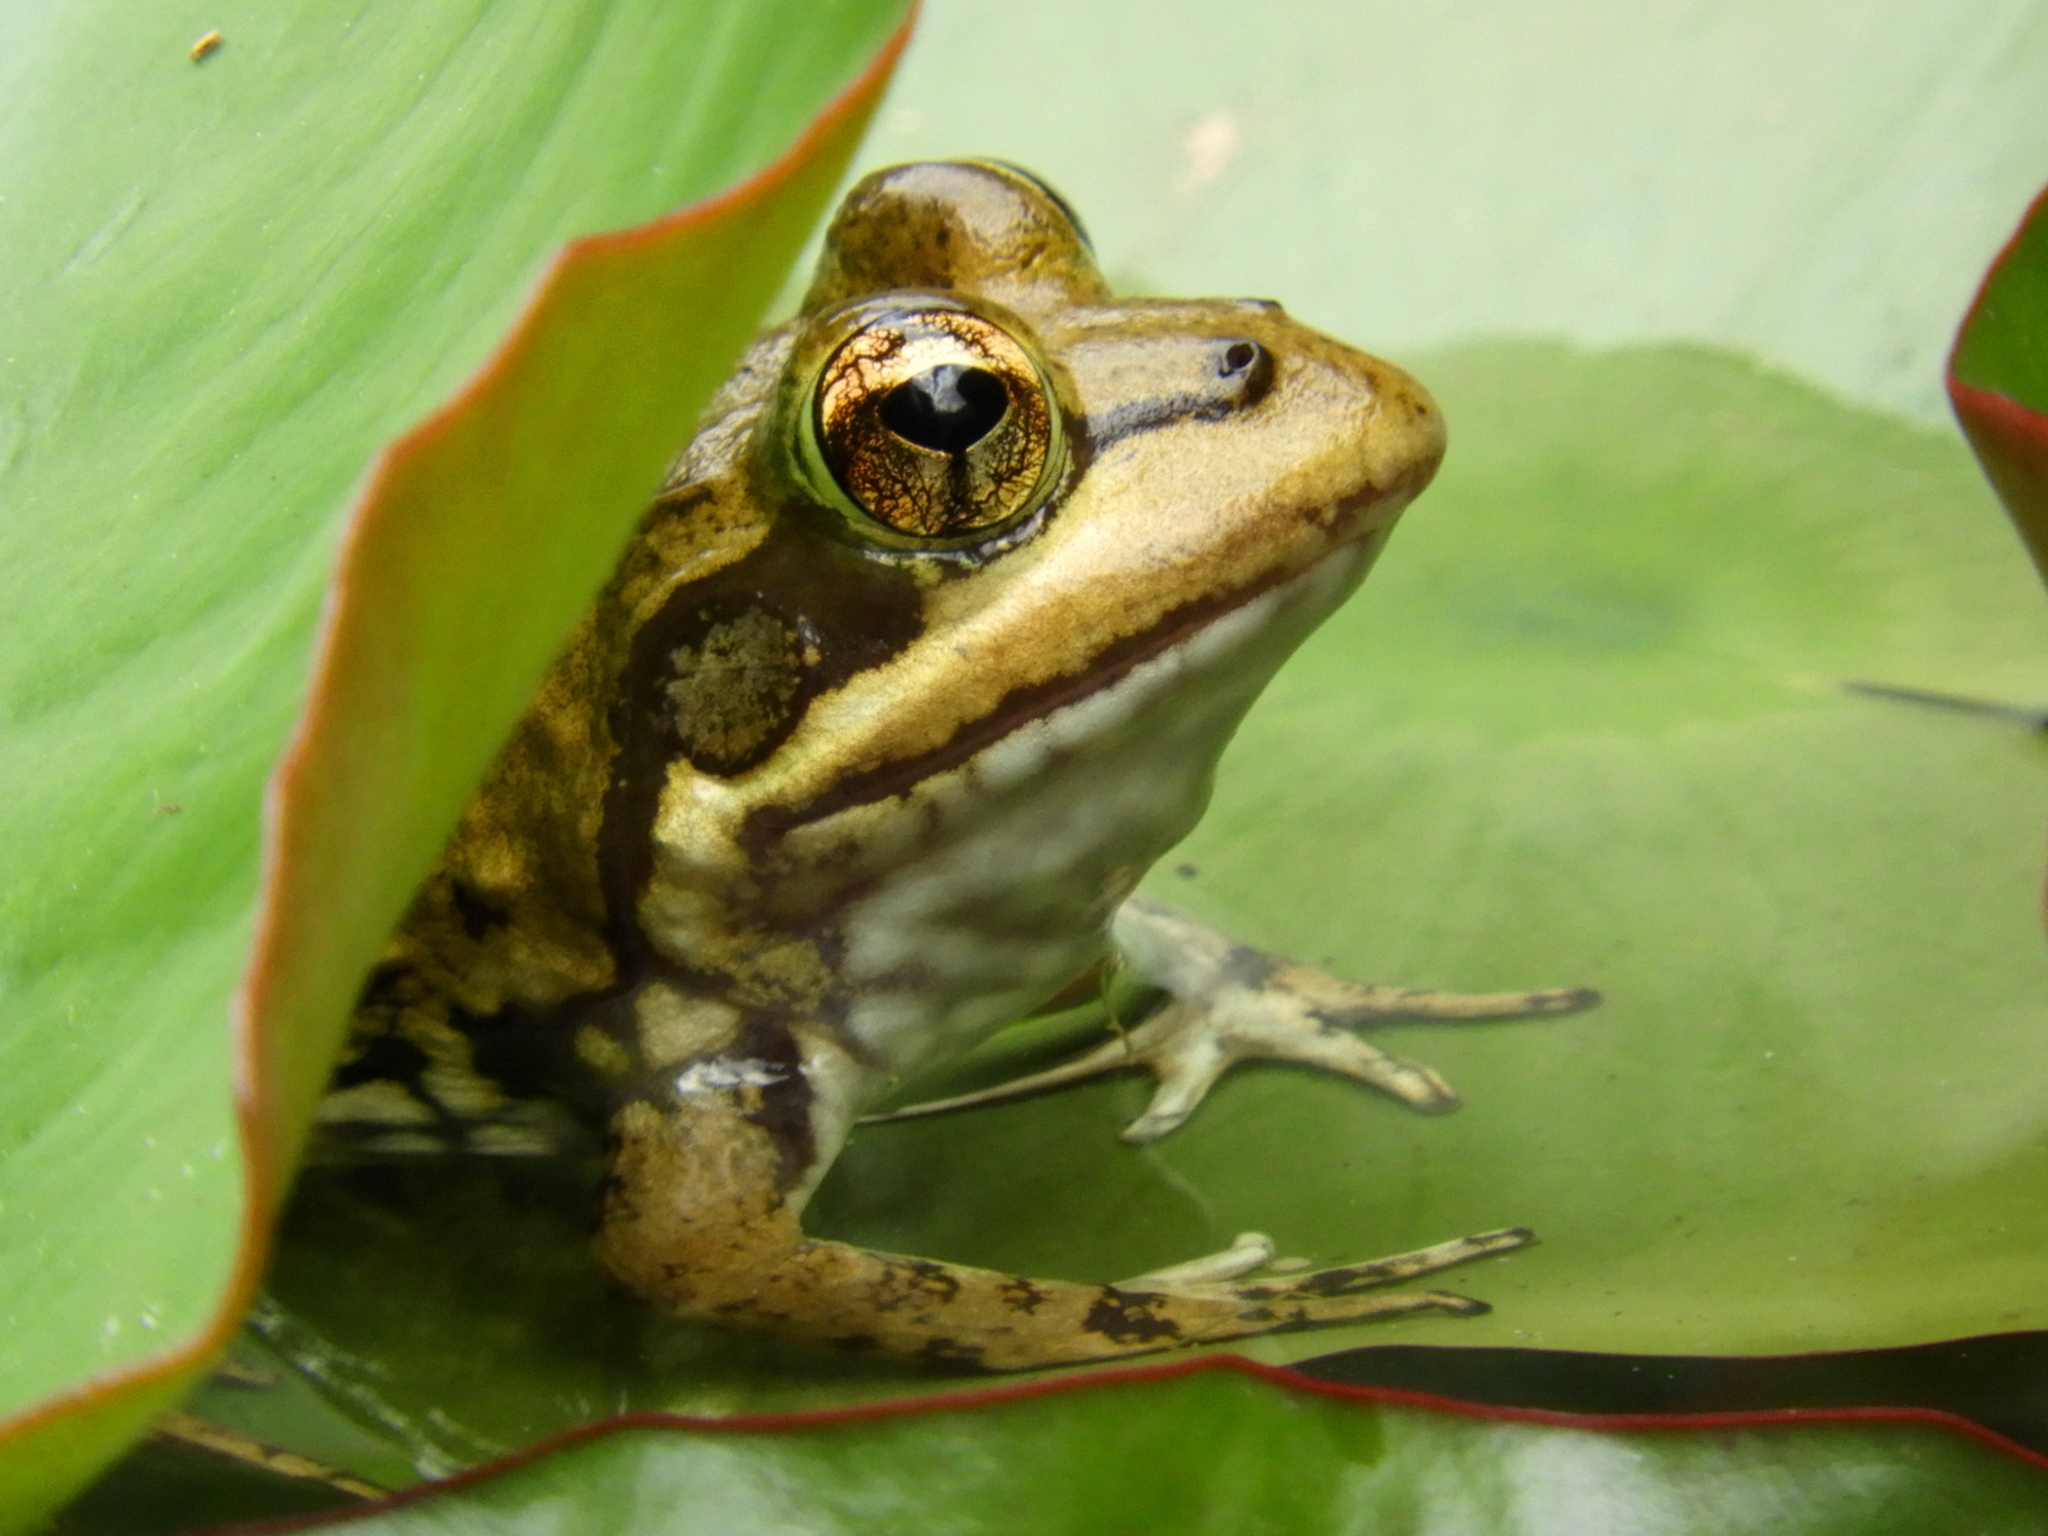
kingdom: Animalia
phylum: Chordata
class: Amphibia
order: Anura
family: Pyxicephalidae
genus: Amietia
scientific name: Amietia fuscigula
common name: Cape rana
